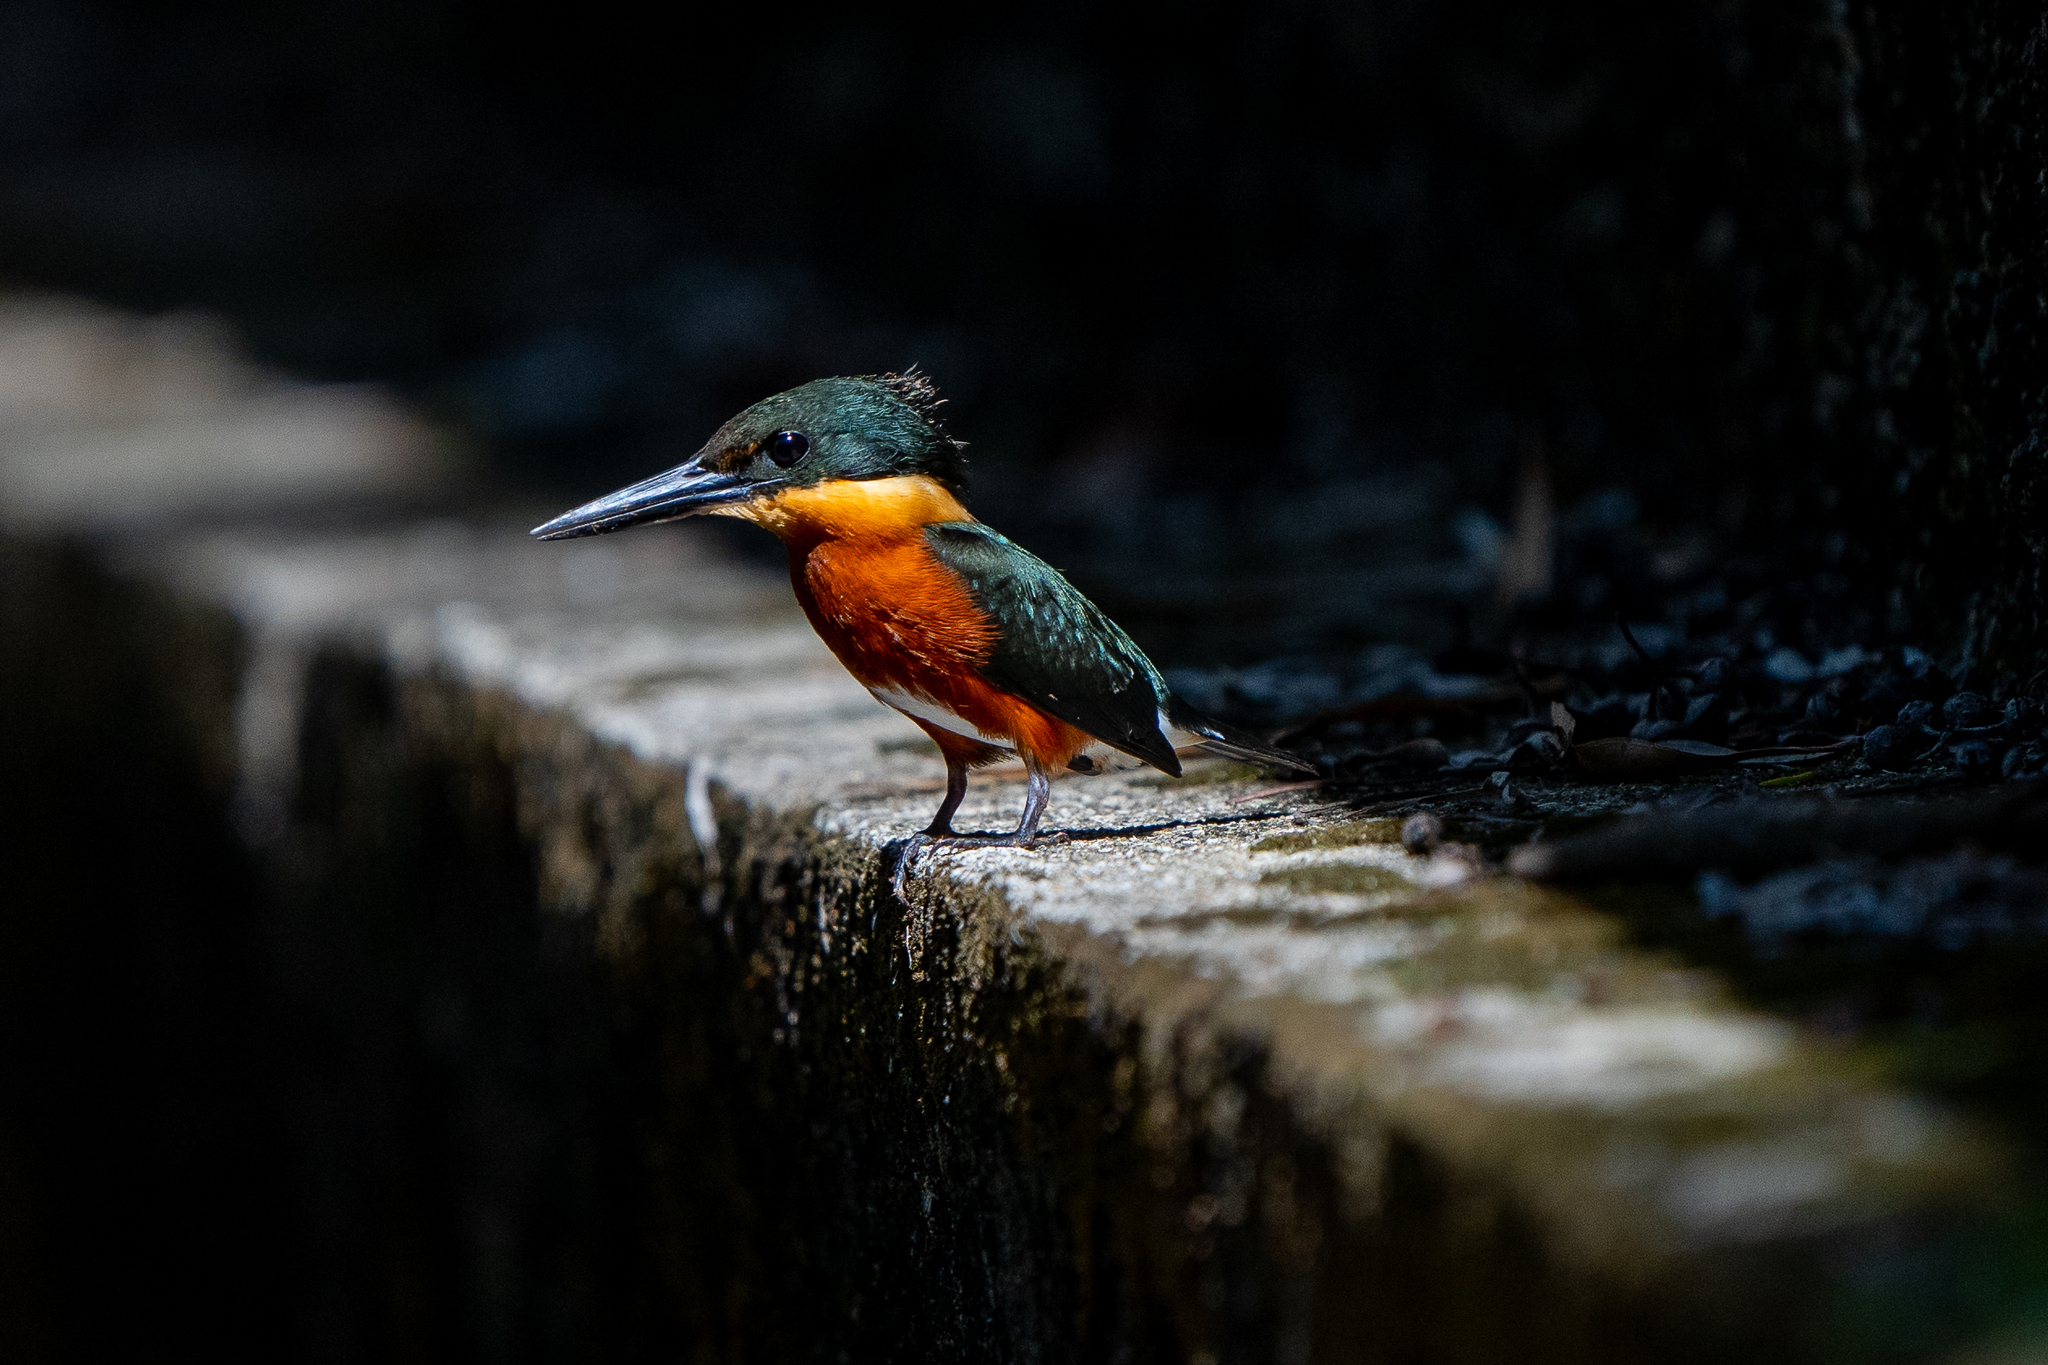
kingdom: Animalia
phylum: Chordata
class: Aves
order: Coraciiformes
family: Alcedinidae
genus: Chloroceryle
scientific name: Chloroceryle aenea
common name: American pygmy kingfisher
